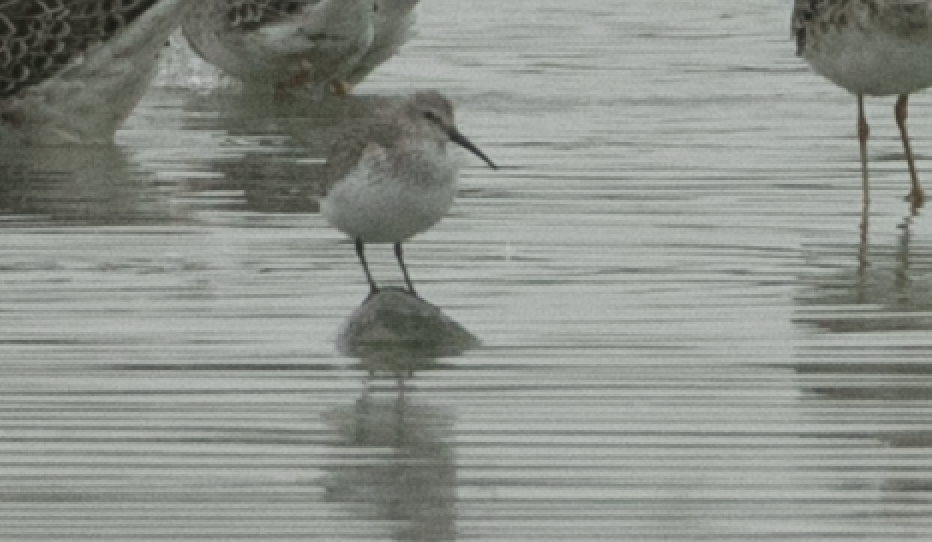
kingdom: Animalia
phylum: Chordata
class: Aves
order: Charadriiformes
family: Scolopacidae
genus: Calidris
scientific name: Calidris alpina
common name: Dunlin
